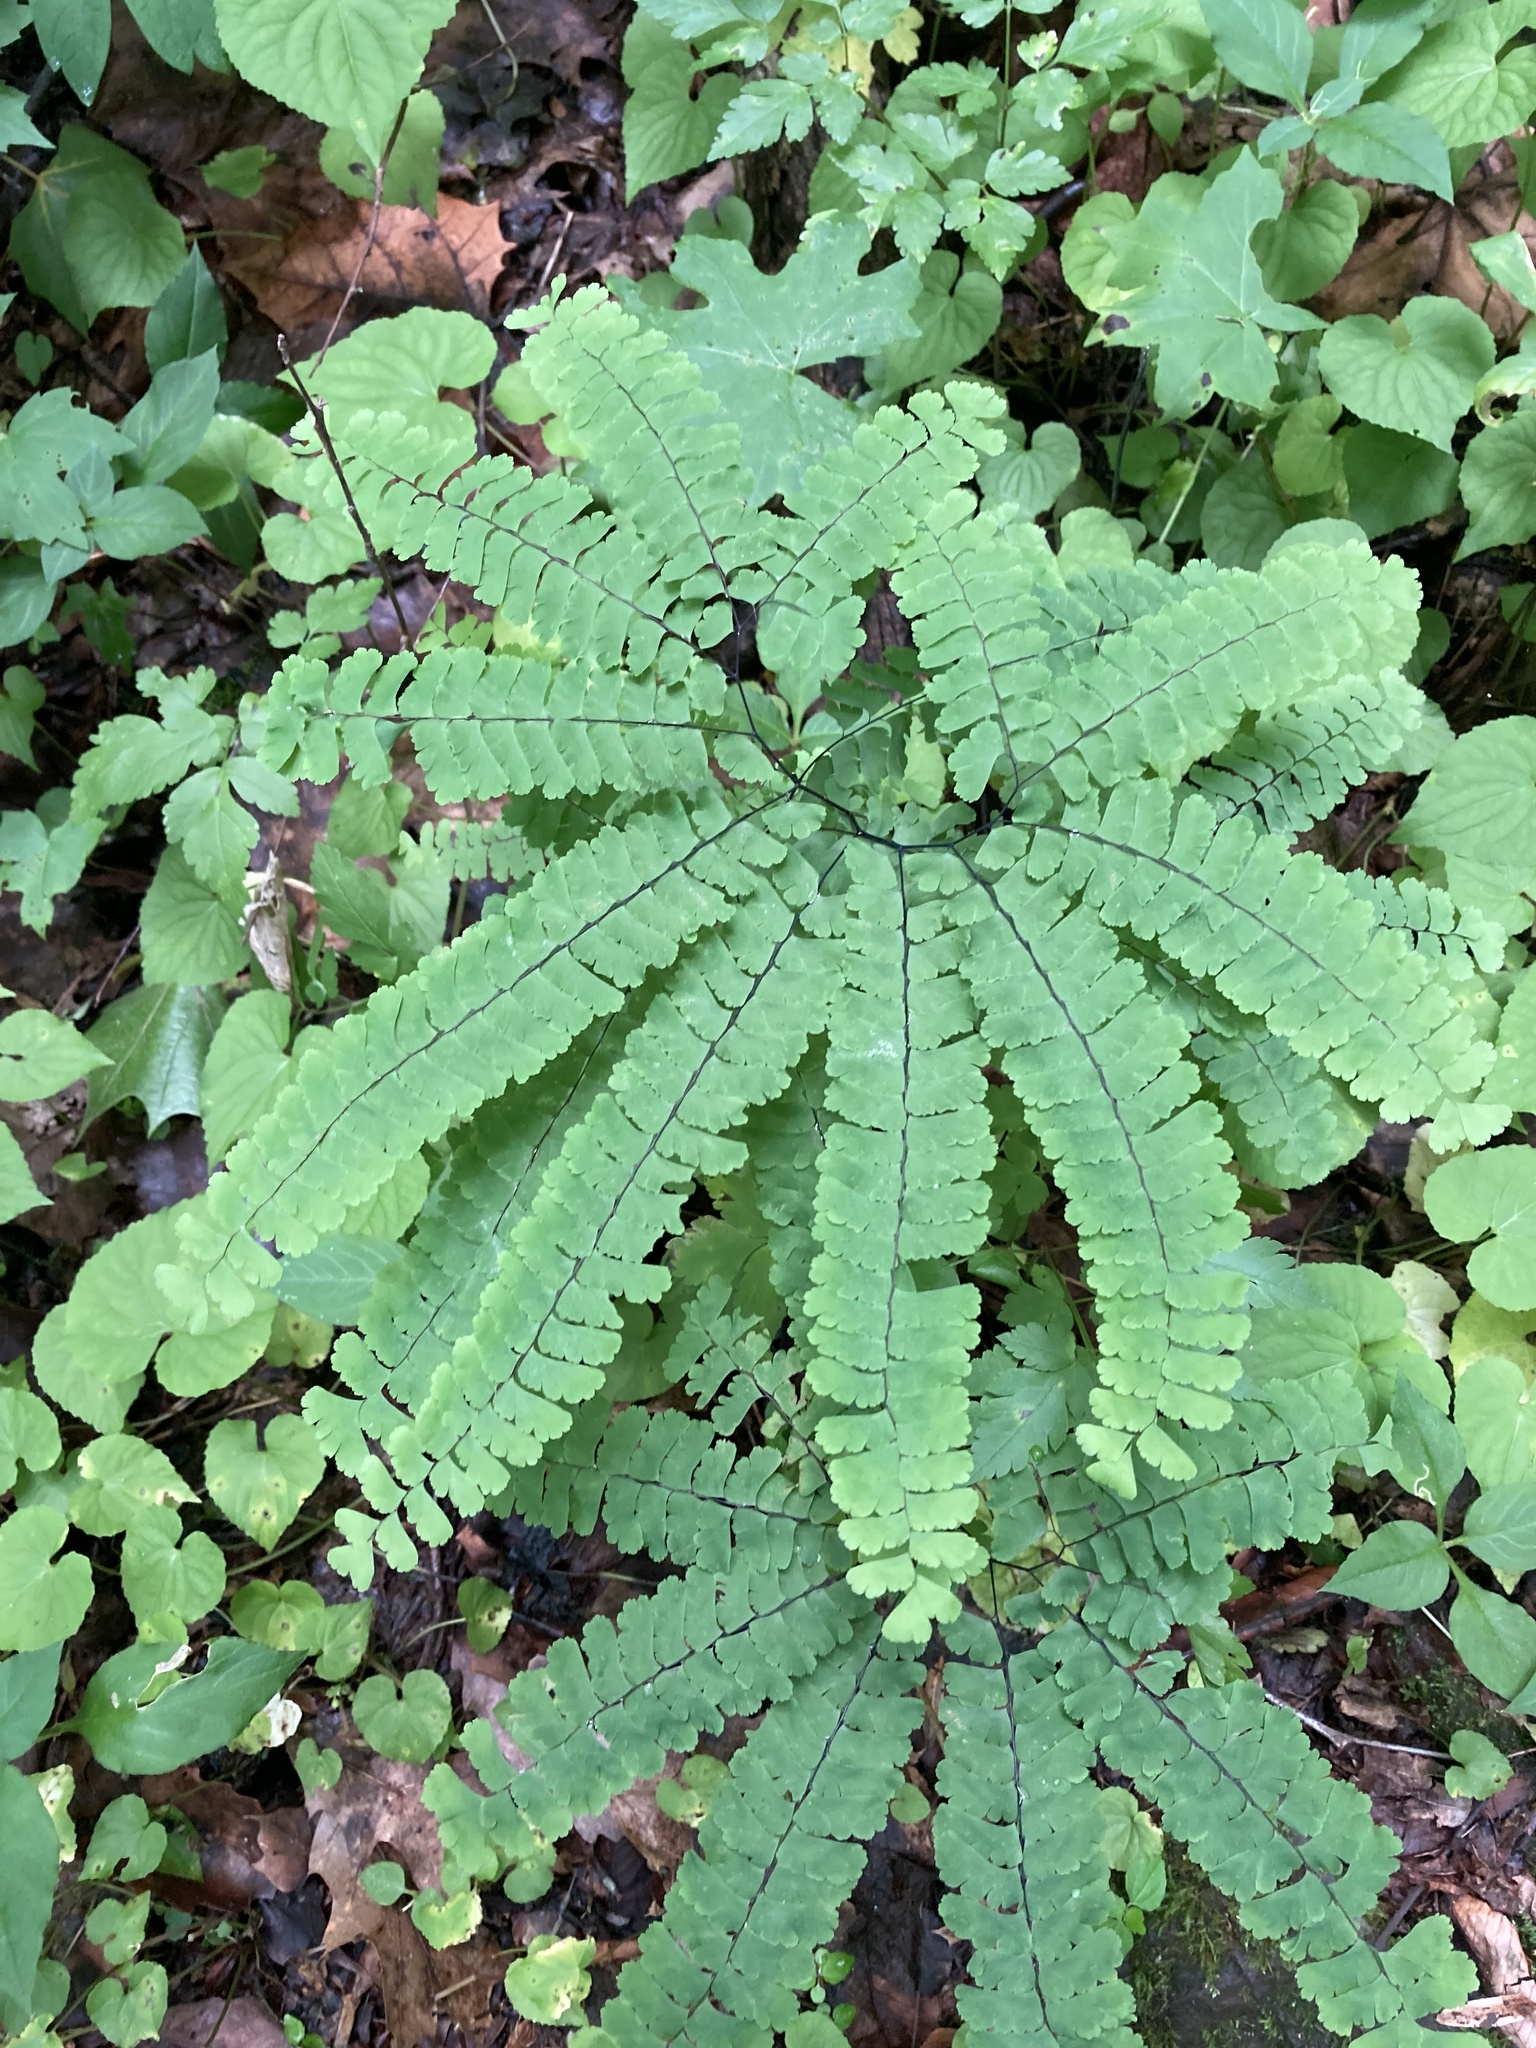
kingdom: Plantae
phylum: Tracheophyta
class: Polypodiopsida
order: Polypodiales
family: Pteridaceae
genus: Adiantum
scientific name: Adiantum pedatum
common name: Five-finger fern
